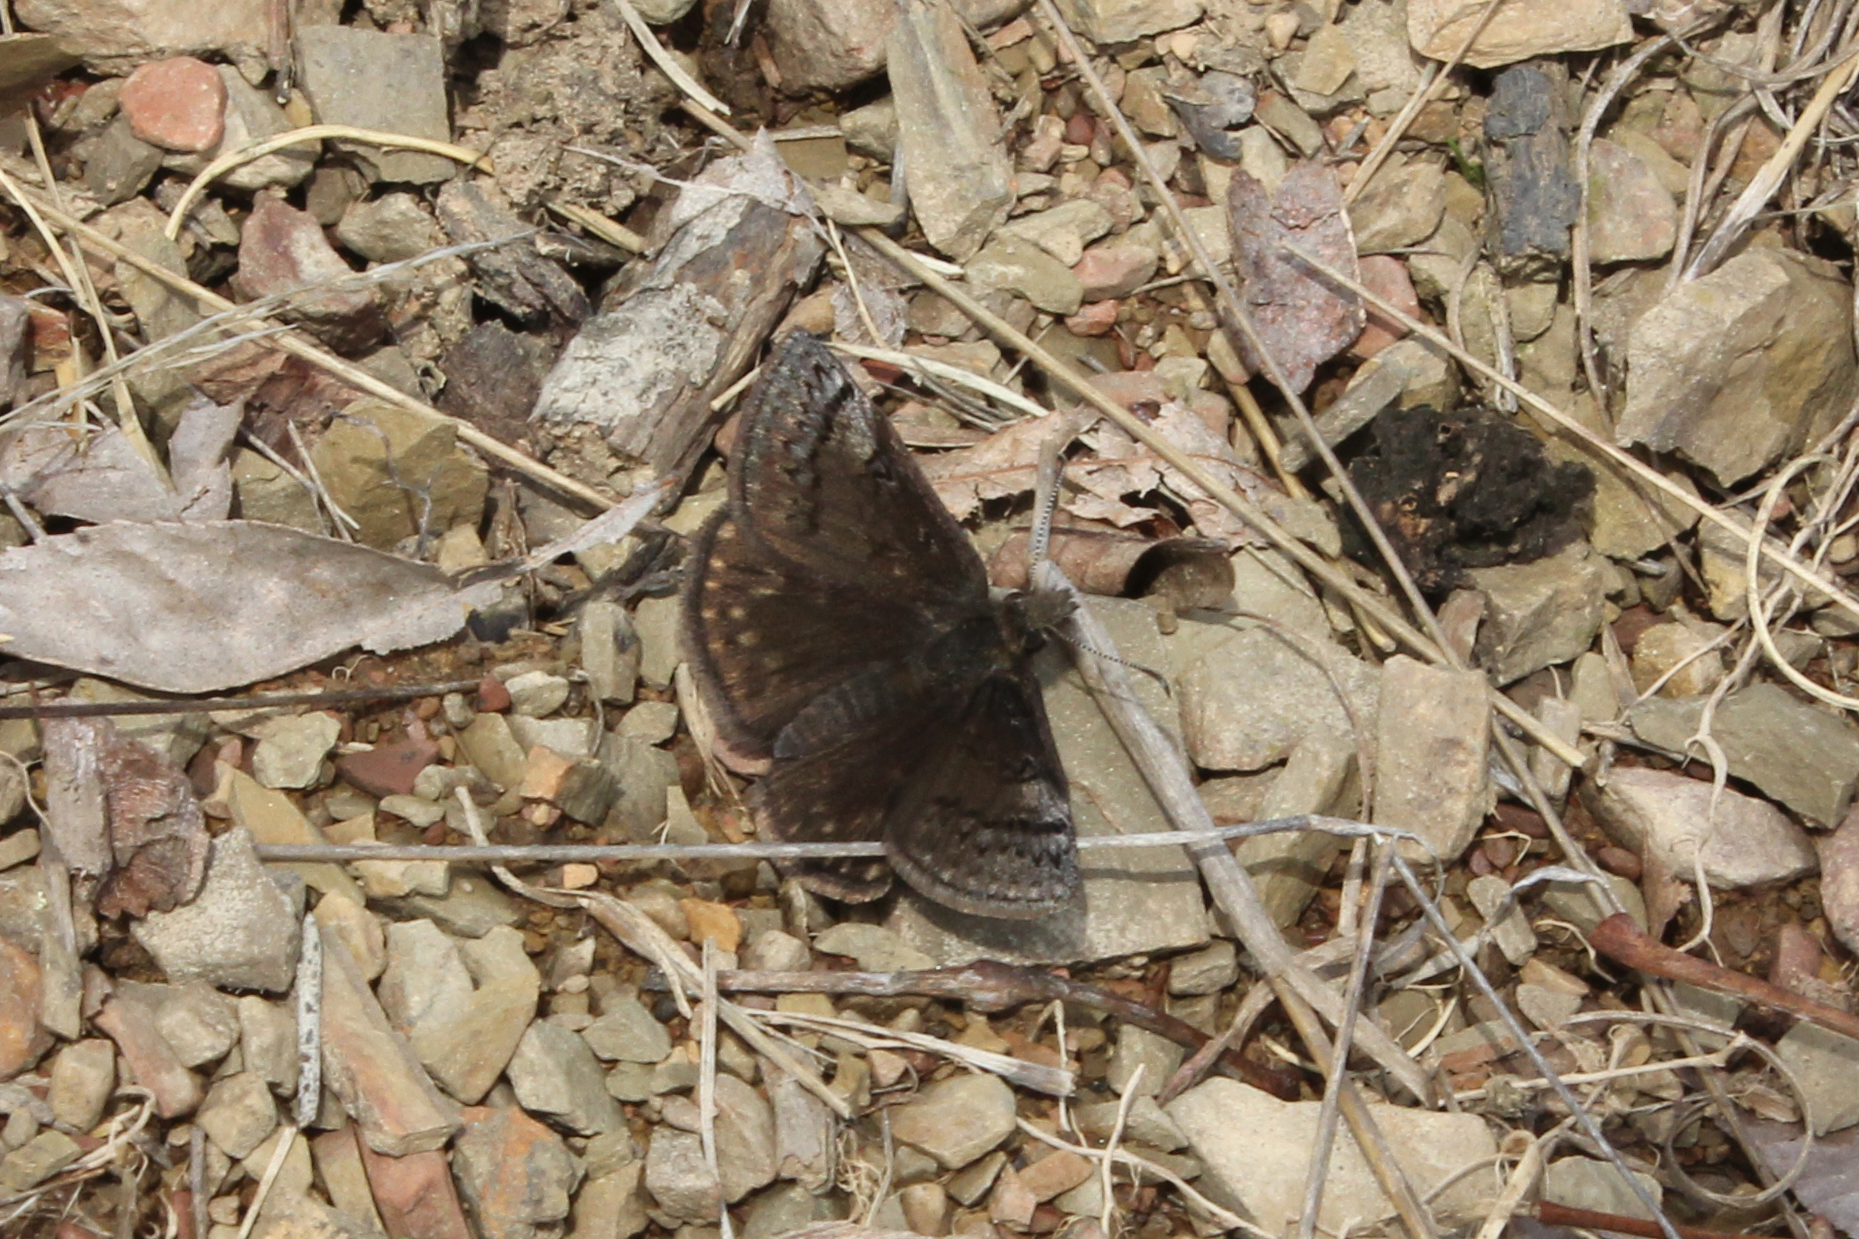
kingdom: Animalia
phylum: Arthropoda
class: Insecta
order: Lepidoptera
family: Hesperiidae
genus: Erynnis
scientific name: Erynnis brizo
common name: Sleepy duskywing
